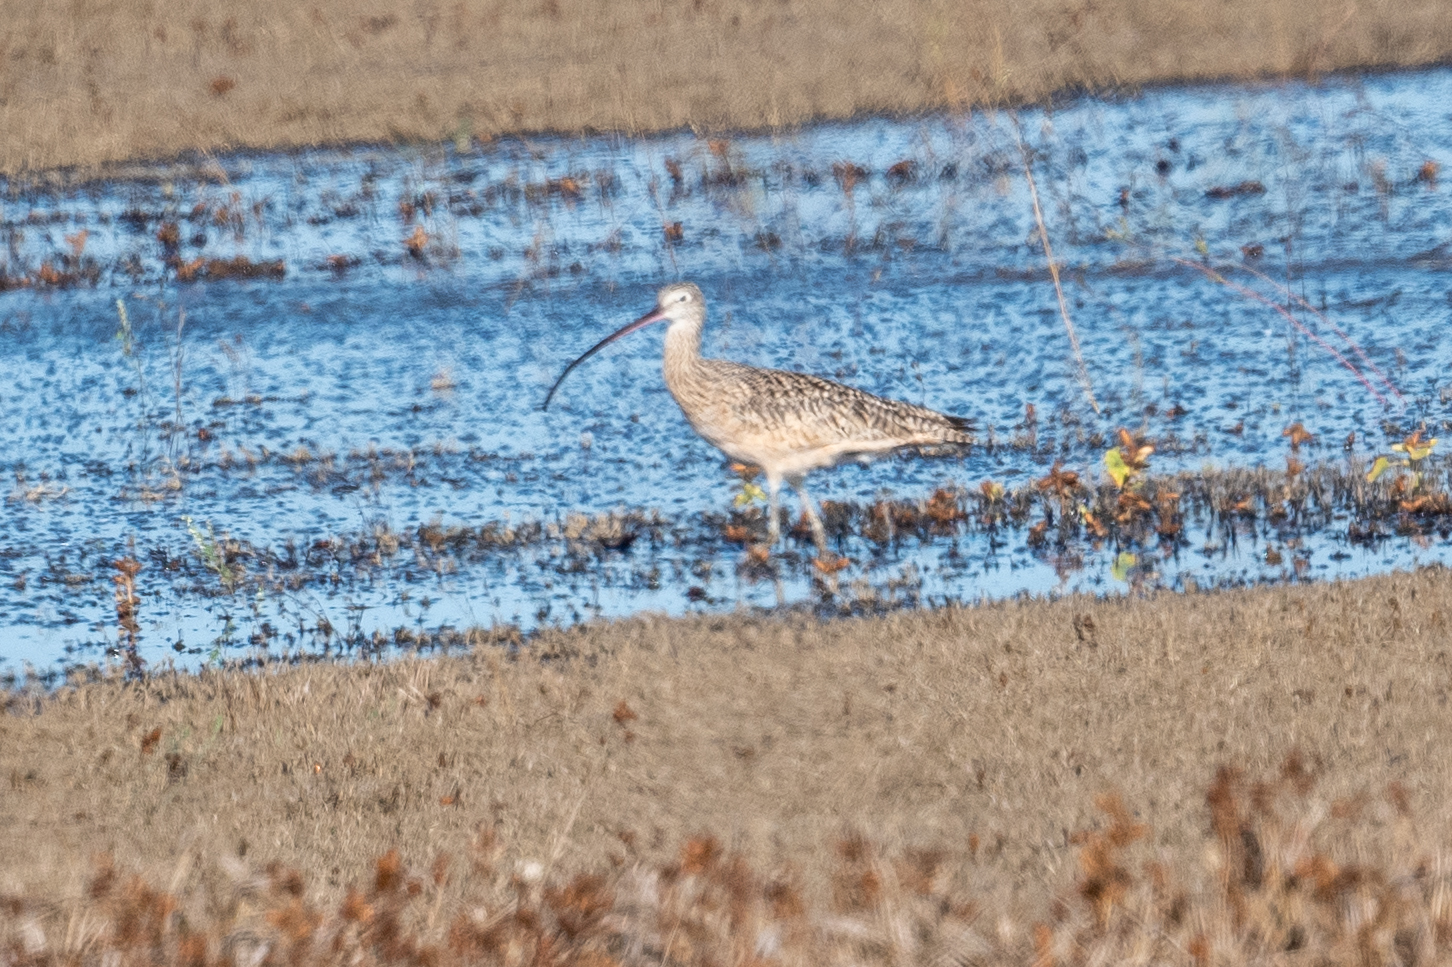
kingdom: Animalia
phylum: Chordata
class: Aves
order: Charadriiformes
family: Scolopacidae
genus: Numenius
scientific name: Numenius americanus
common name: Long-billed curlew
